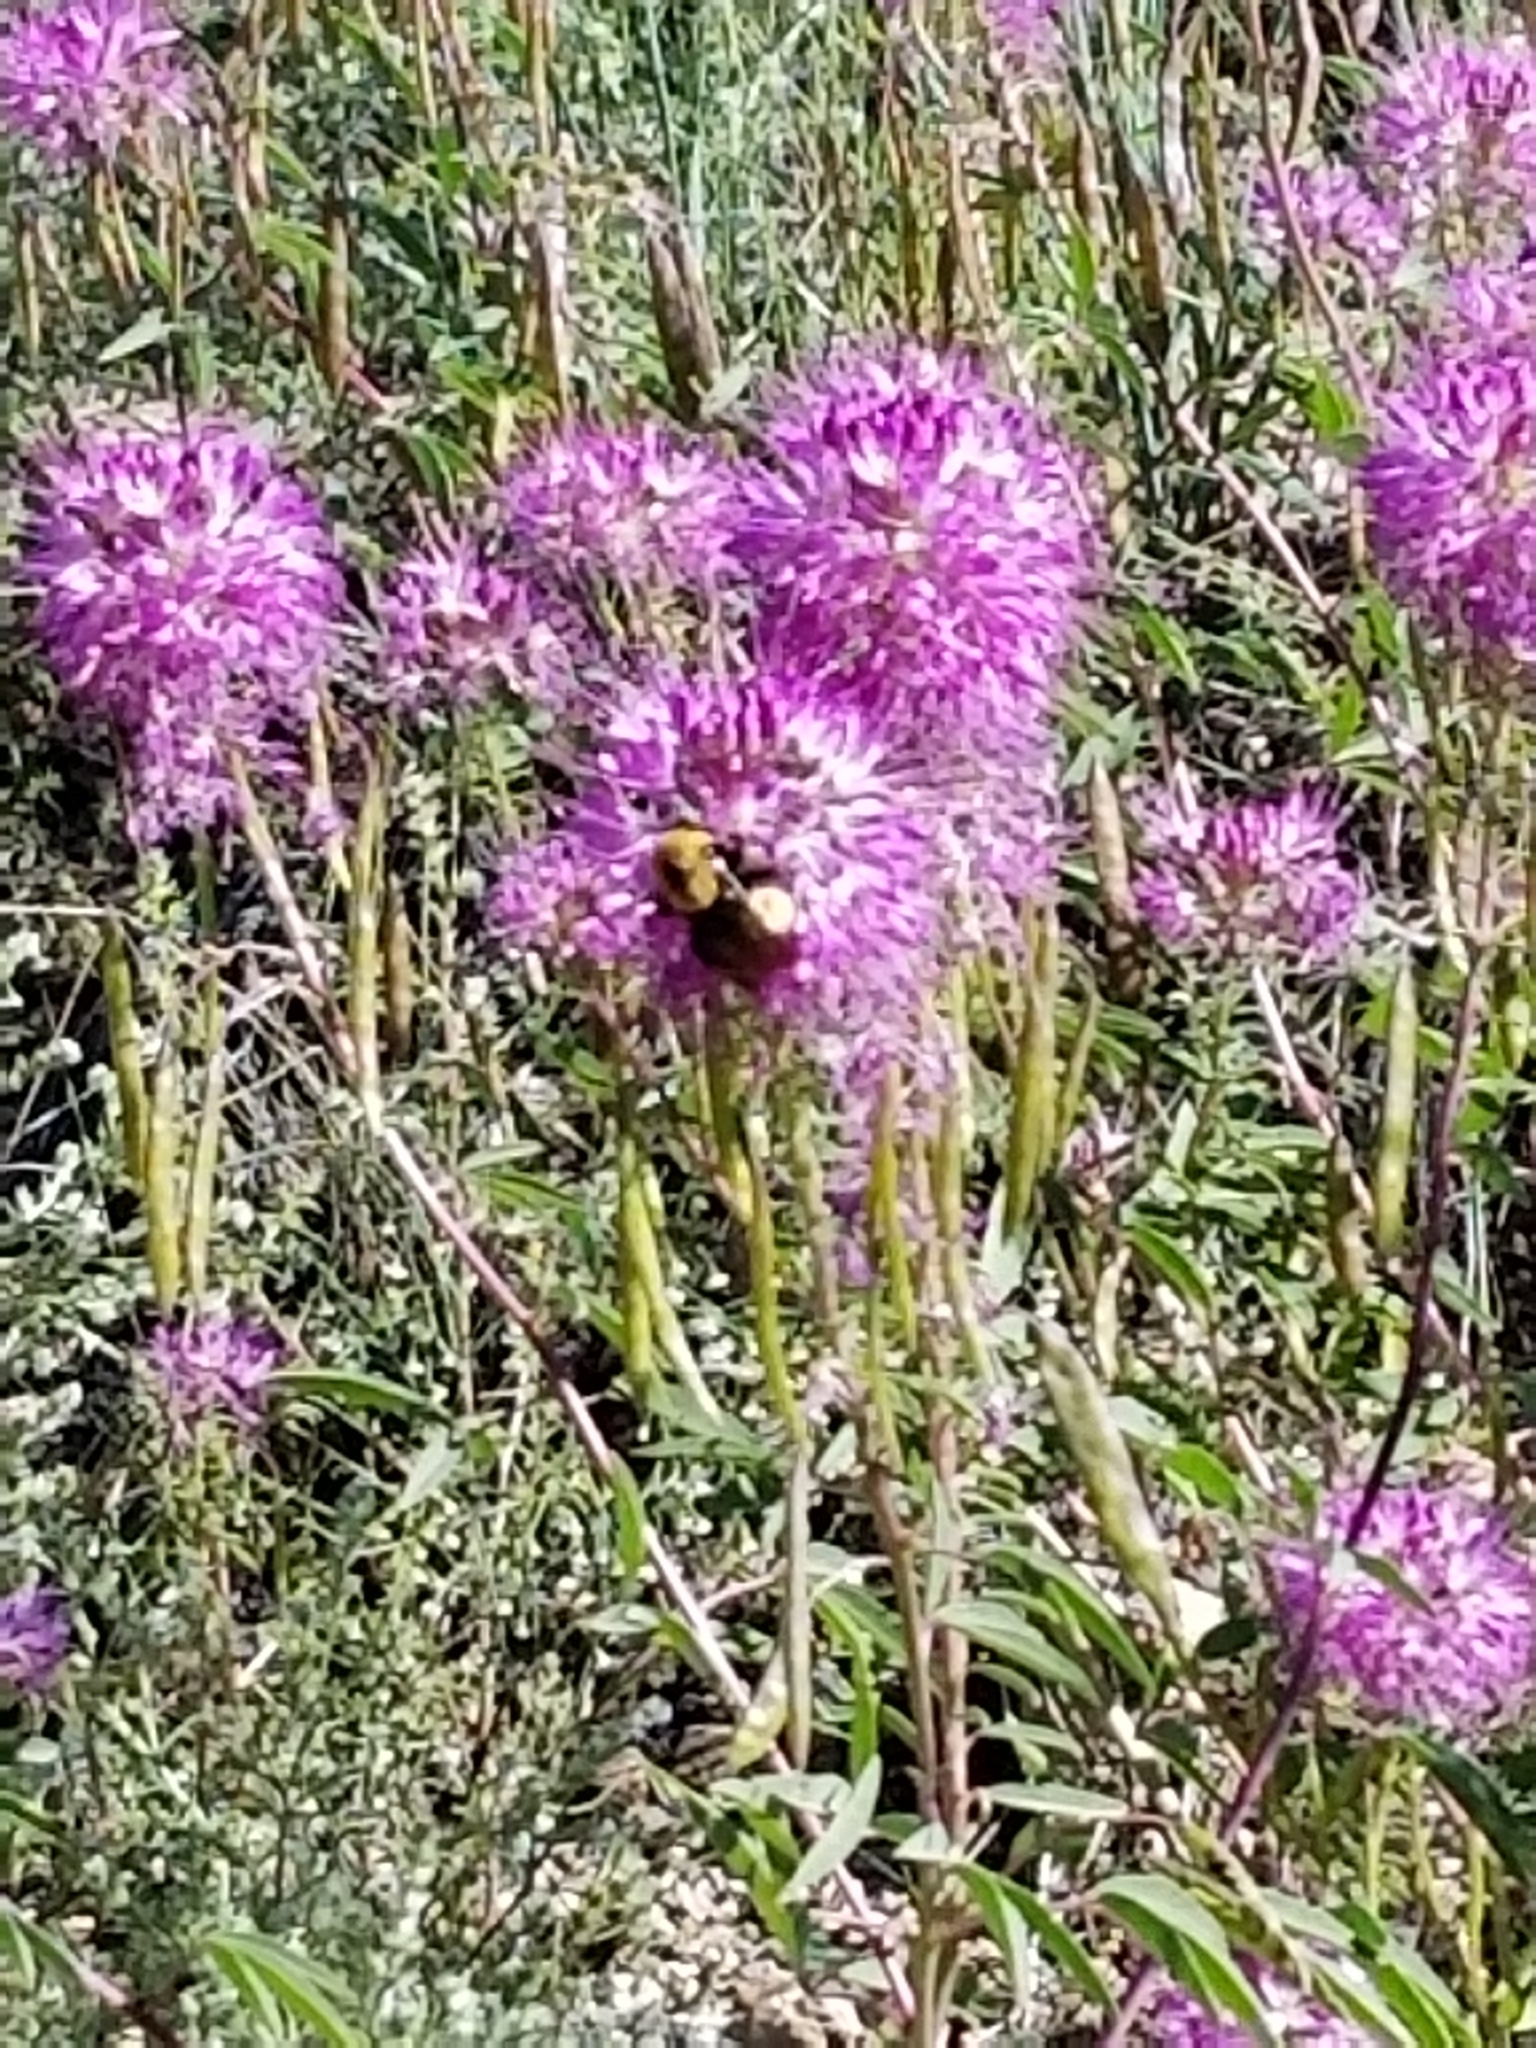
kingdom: Animalia
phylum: Arthropoda
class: Insecta
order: Hymenoptera
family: Apidae
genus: Bombus
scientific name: Bombus nevadensis
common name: Nevada bumble bee
